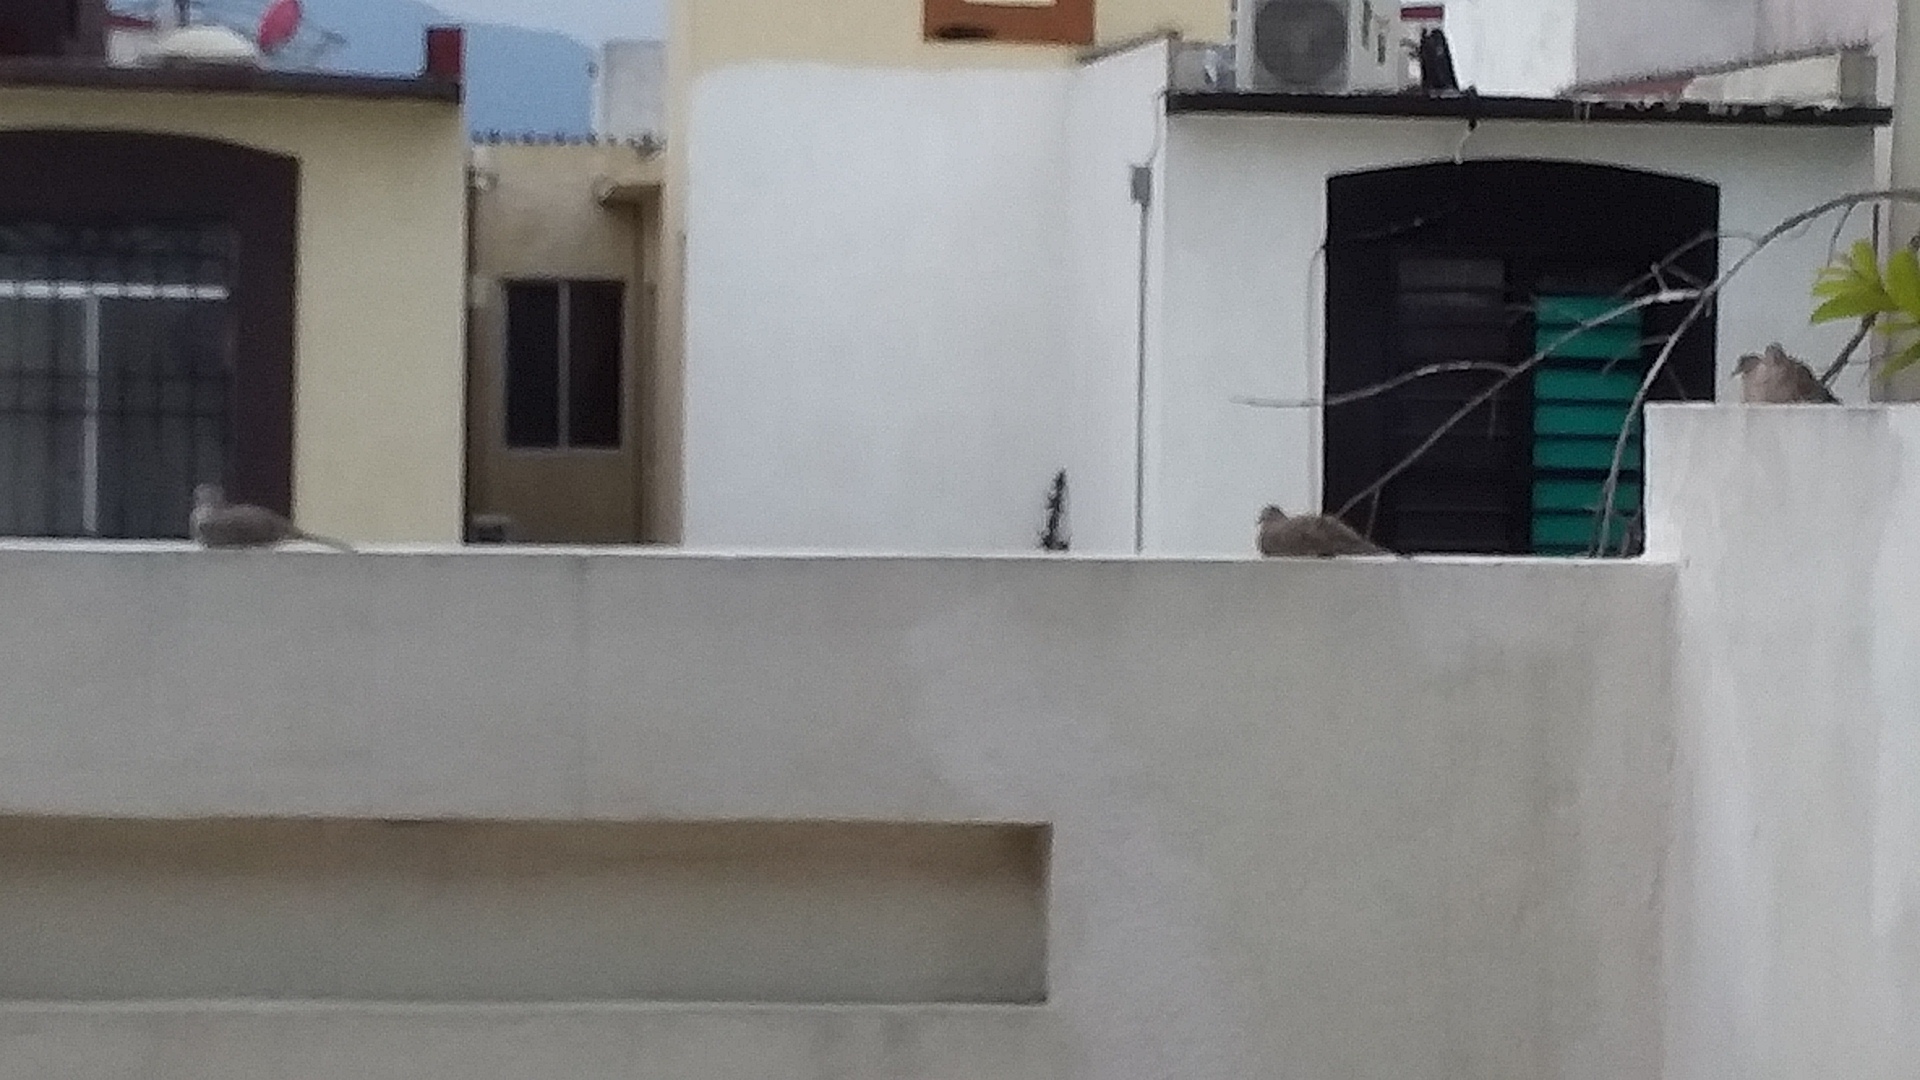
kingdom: Animalia
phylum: Chordata
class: Aves
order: Columbiformes
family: Columbidae
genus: Columbina
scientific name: Columbina inca
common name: Inca dove
